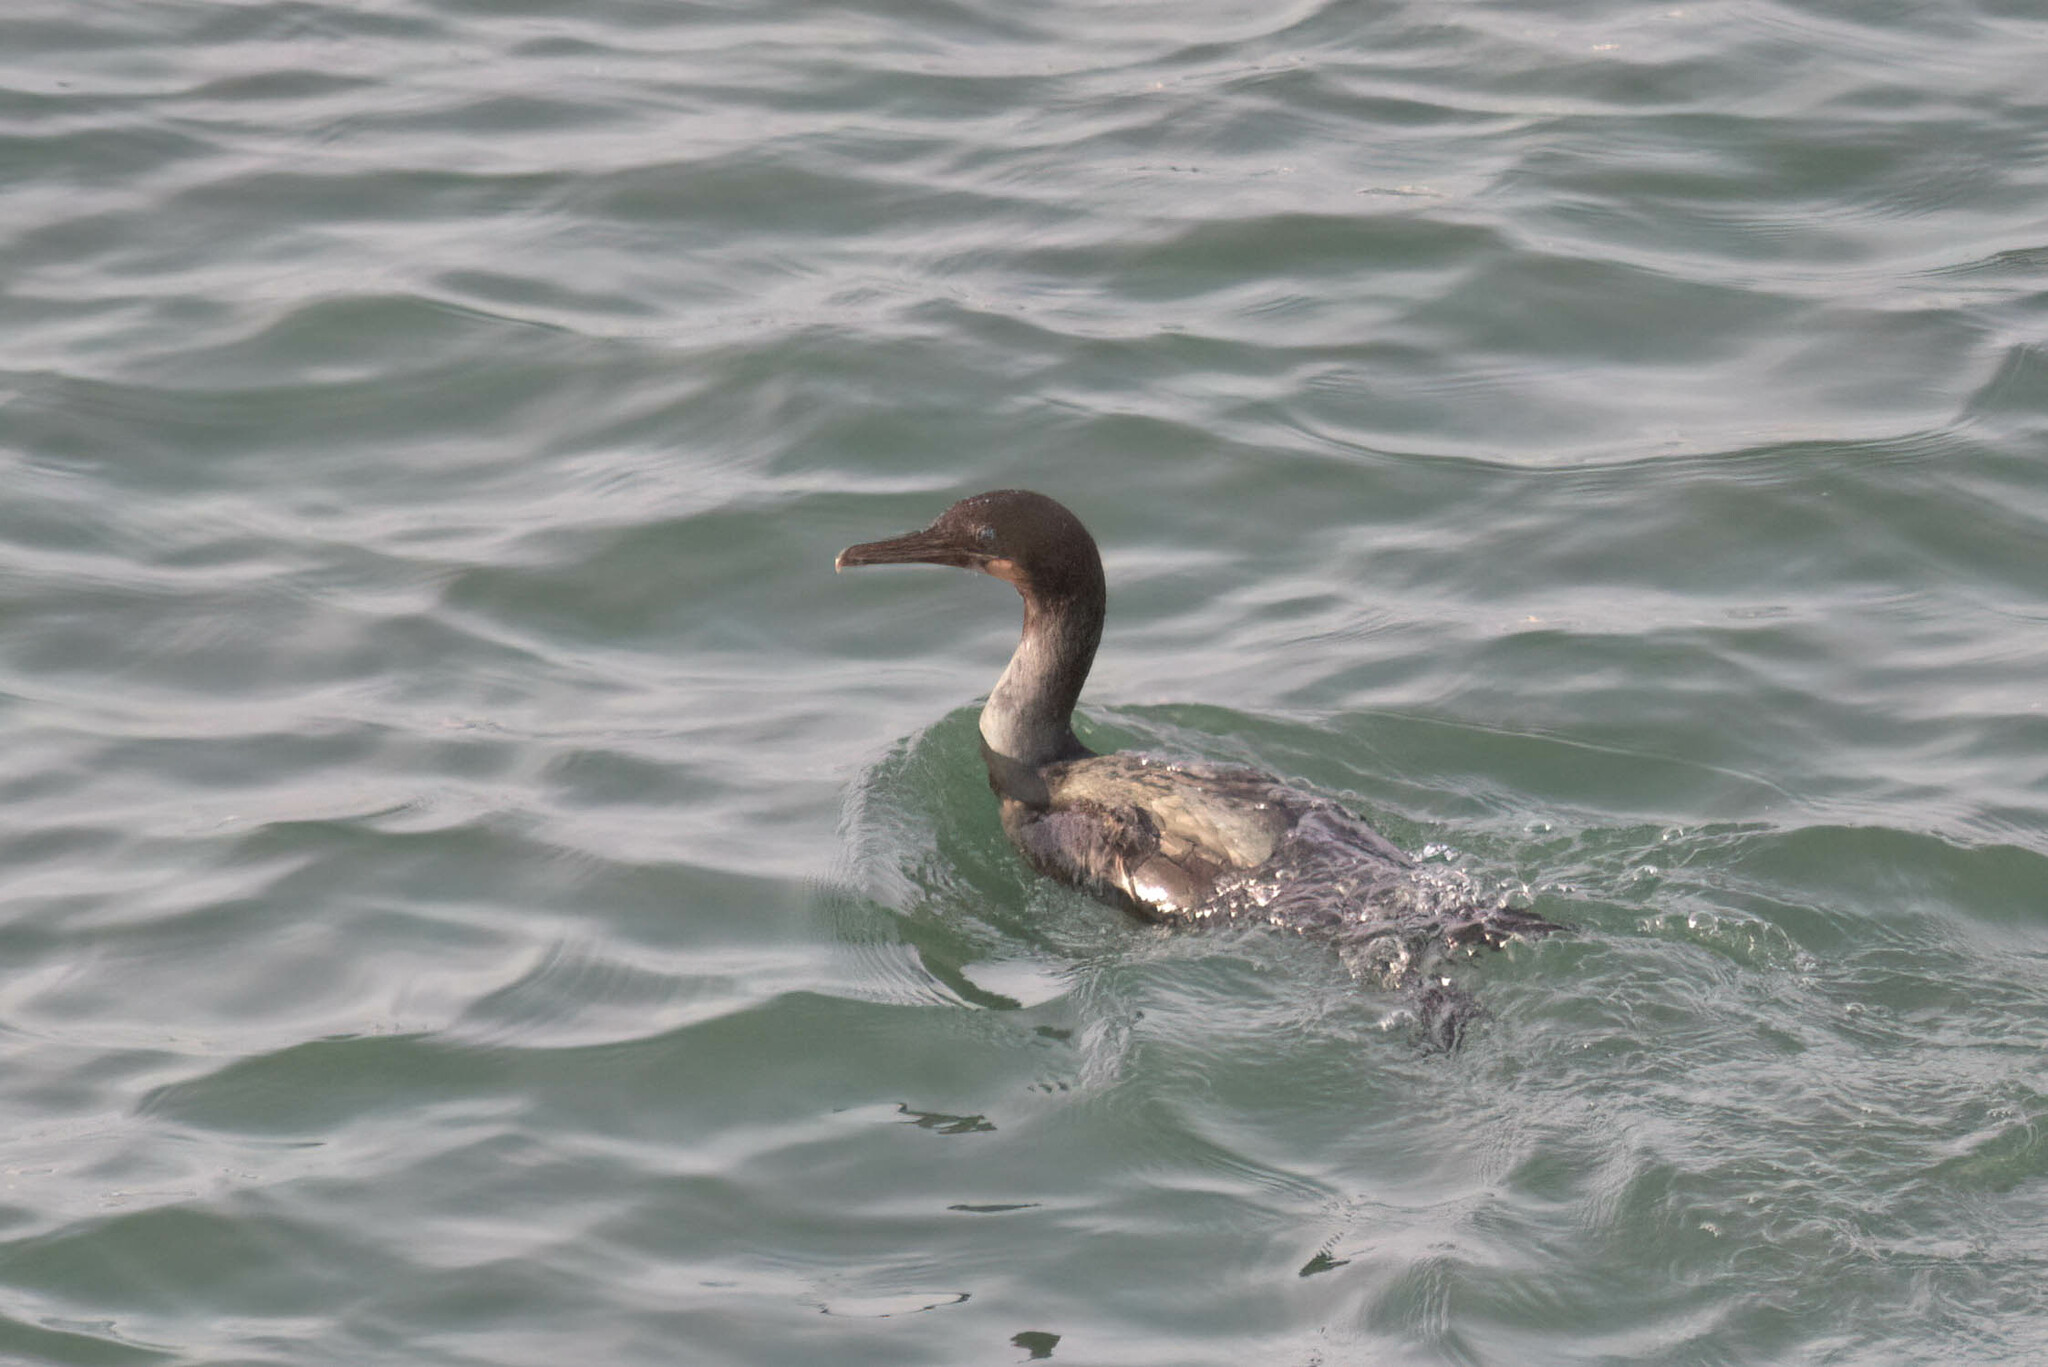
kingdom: Animalia
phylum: Chordata
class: Aves
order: Suliformes
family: Phalacrocoracidae
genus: Urile
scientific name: Urile penicillatus
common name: Brandt's cormorant
